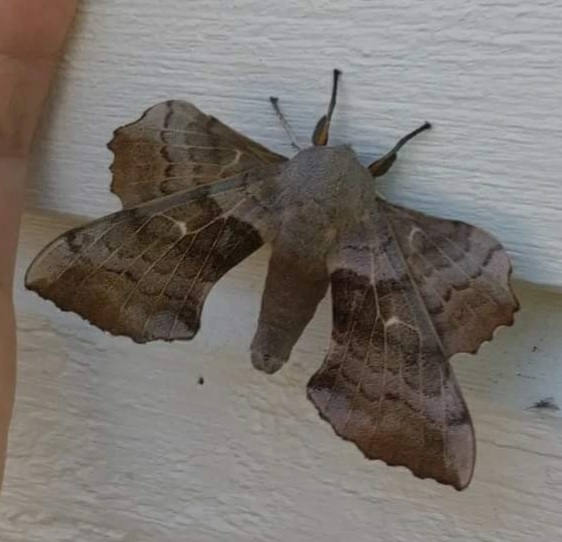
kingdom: Animalia
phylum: Arthropoda
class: Insecta
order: Lepidoptera
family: Sphingidae
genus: Laothoe
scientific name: Laothoe populi
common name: Poplar hawk-moth
